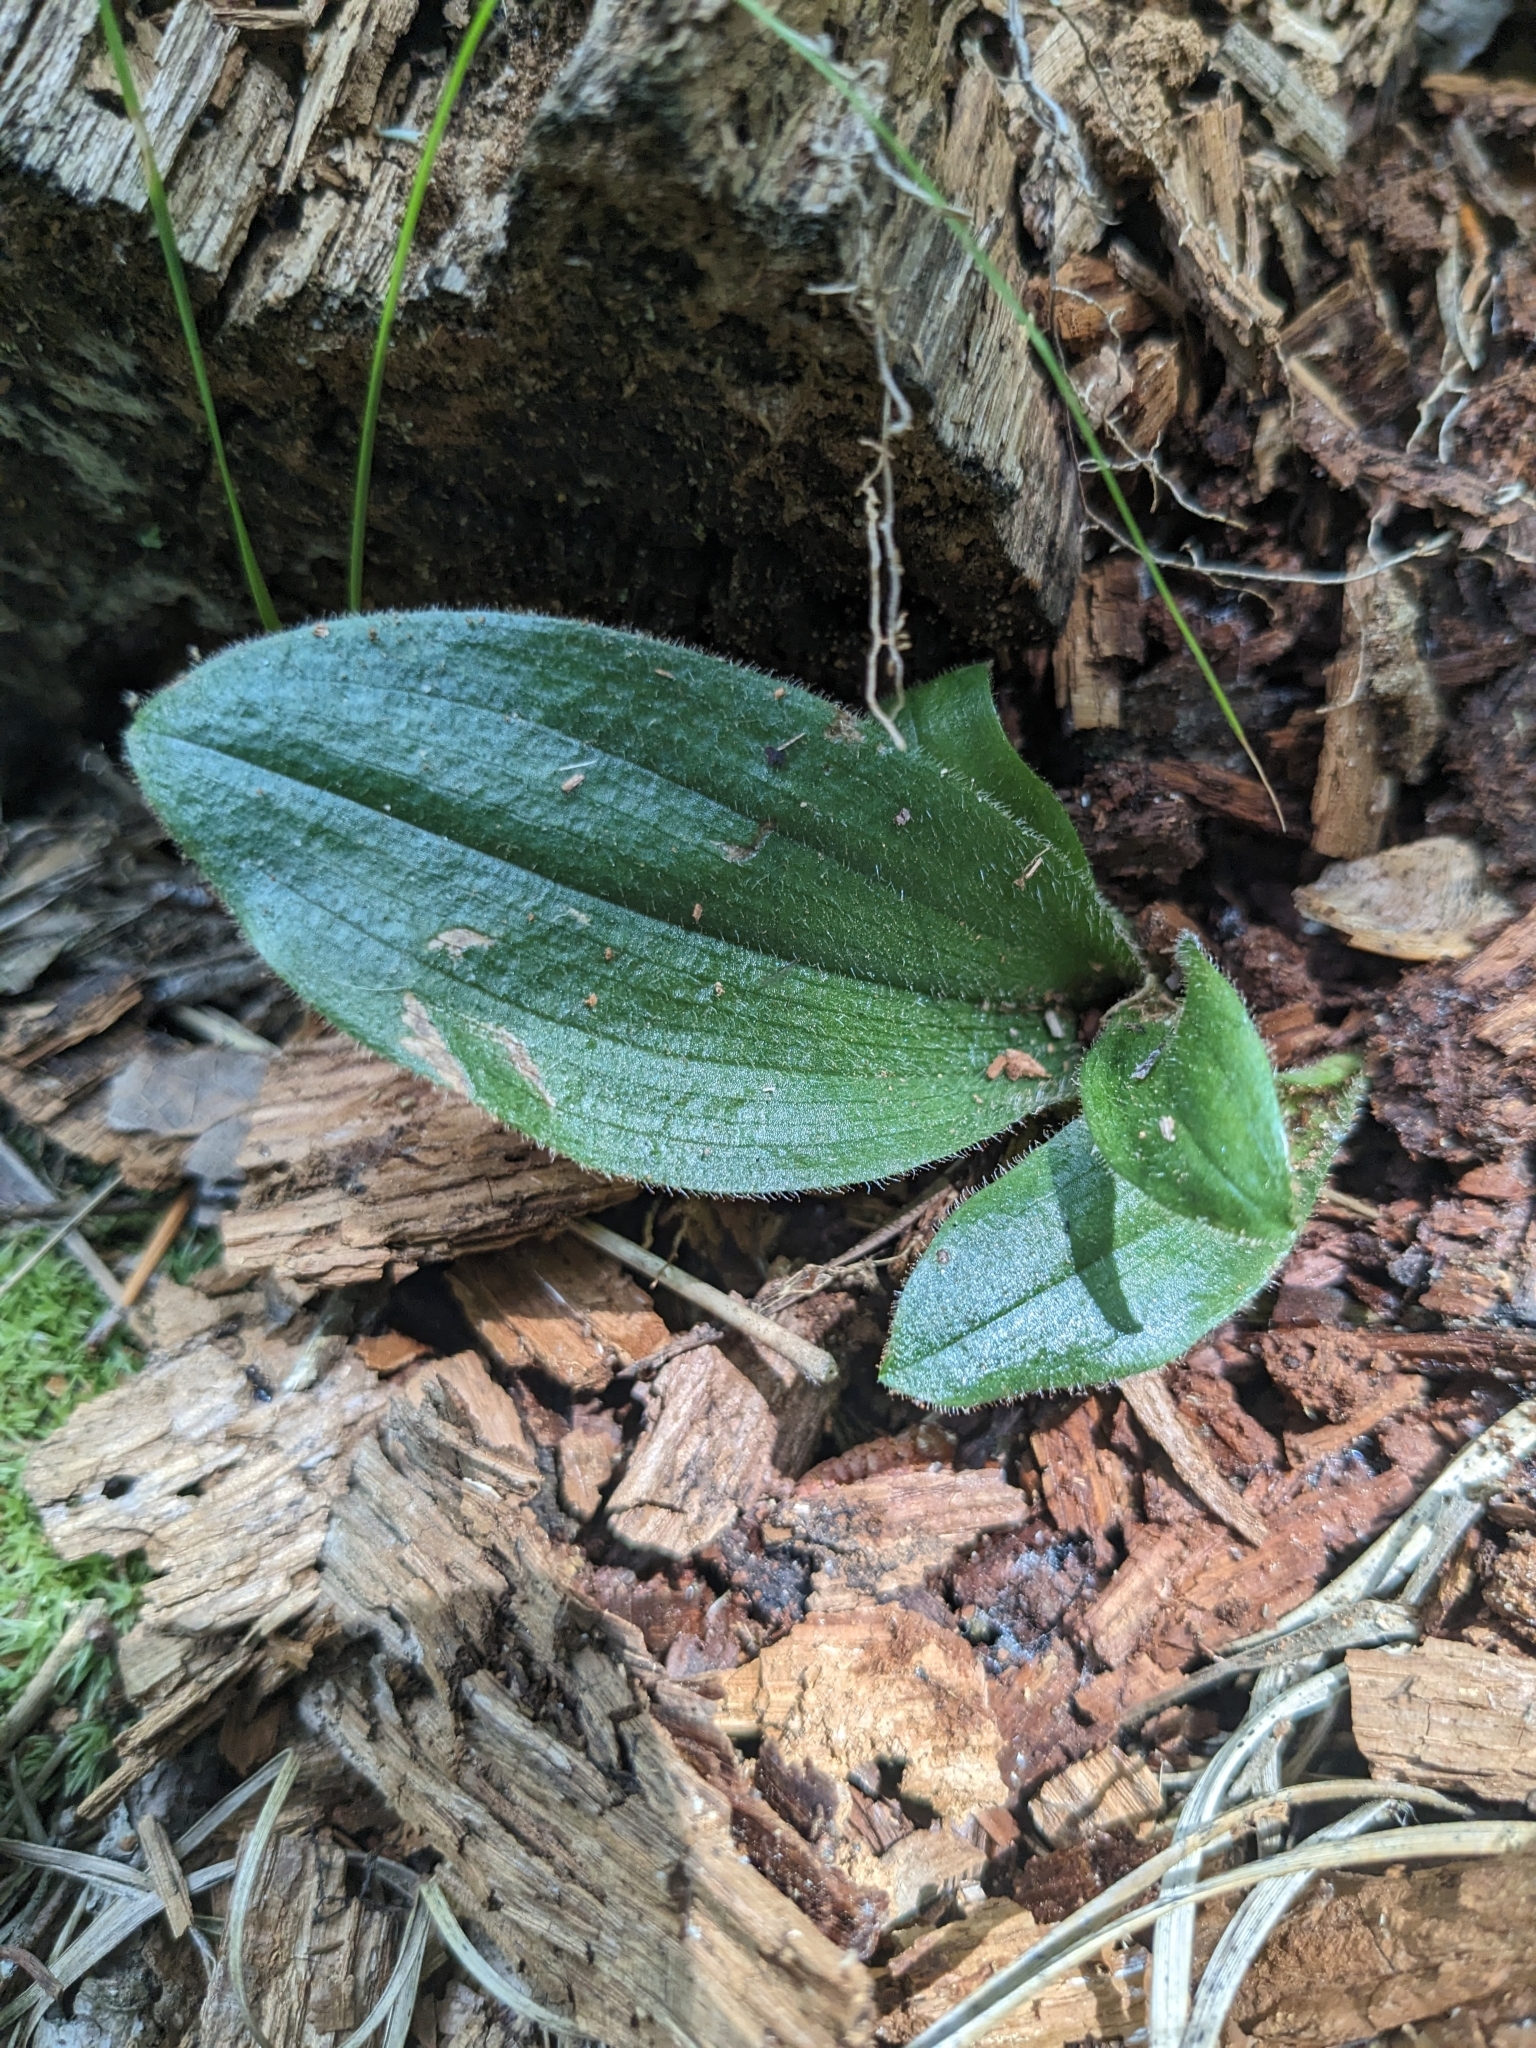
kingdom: Plantae
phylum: Tracheophyta
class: Liliopsida
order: Asparagales
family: Orchidaceae
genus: Cypripedium
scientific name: Cypripedium acaule
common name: Pink lady's-slipper
